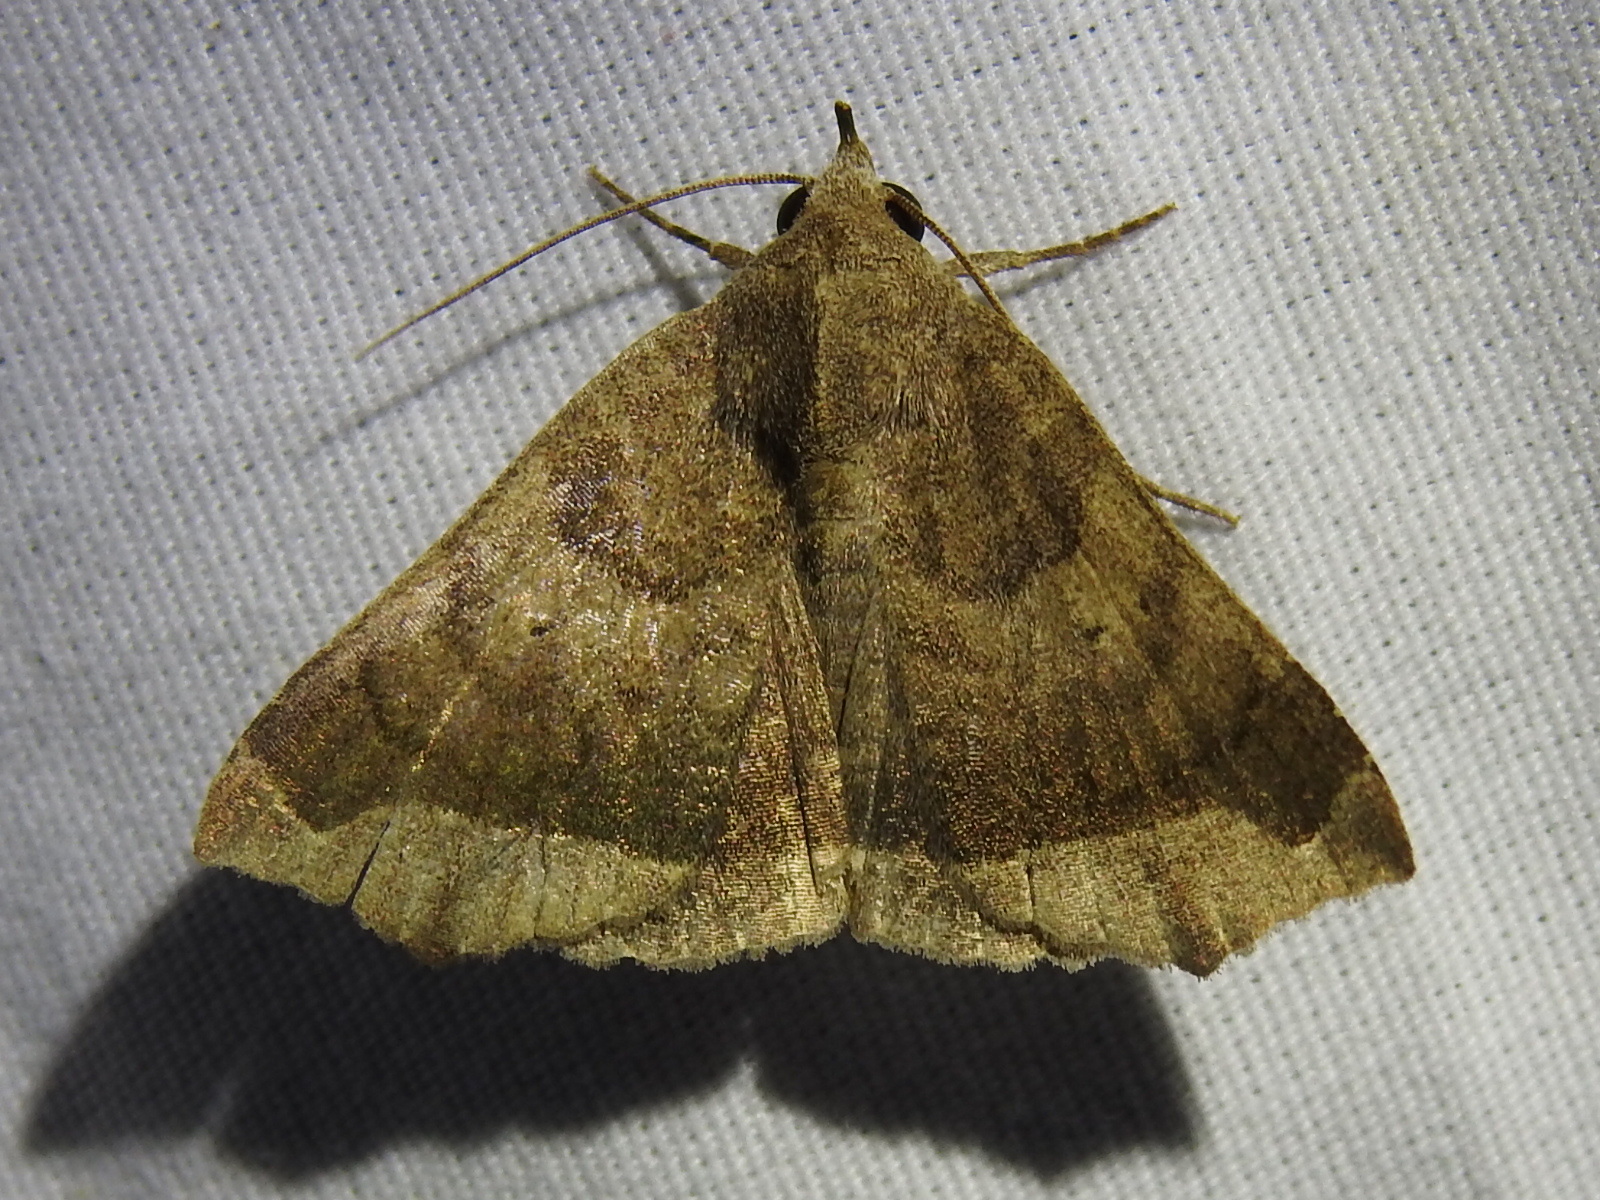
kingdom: Animalia
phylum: Arthropoda
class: Insecta
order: Lepidoptera
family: Erebidae
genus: Bendisodes
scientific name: Bendisodes aeolia
